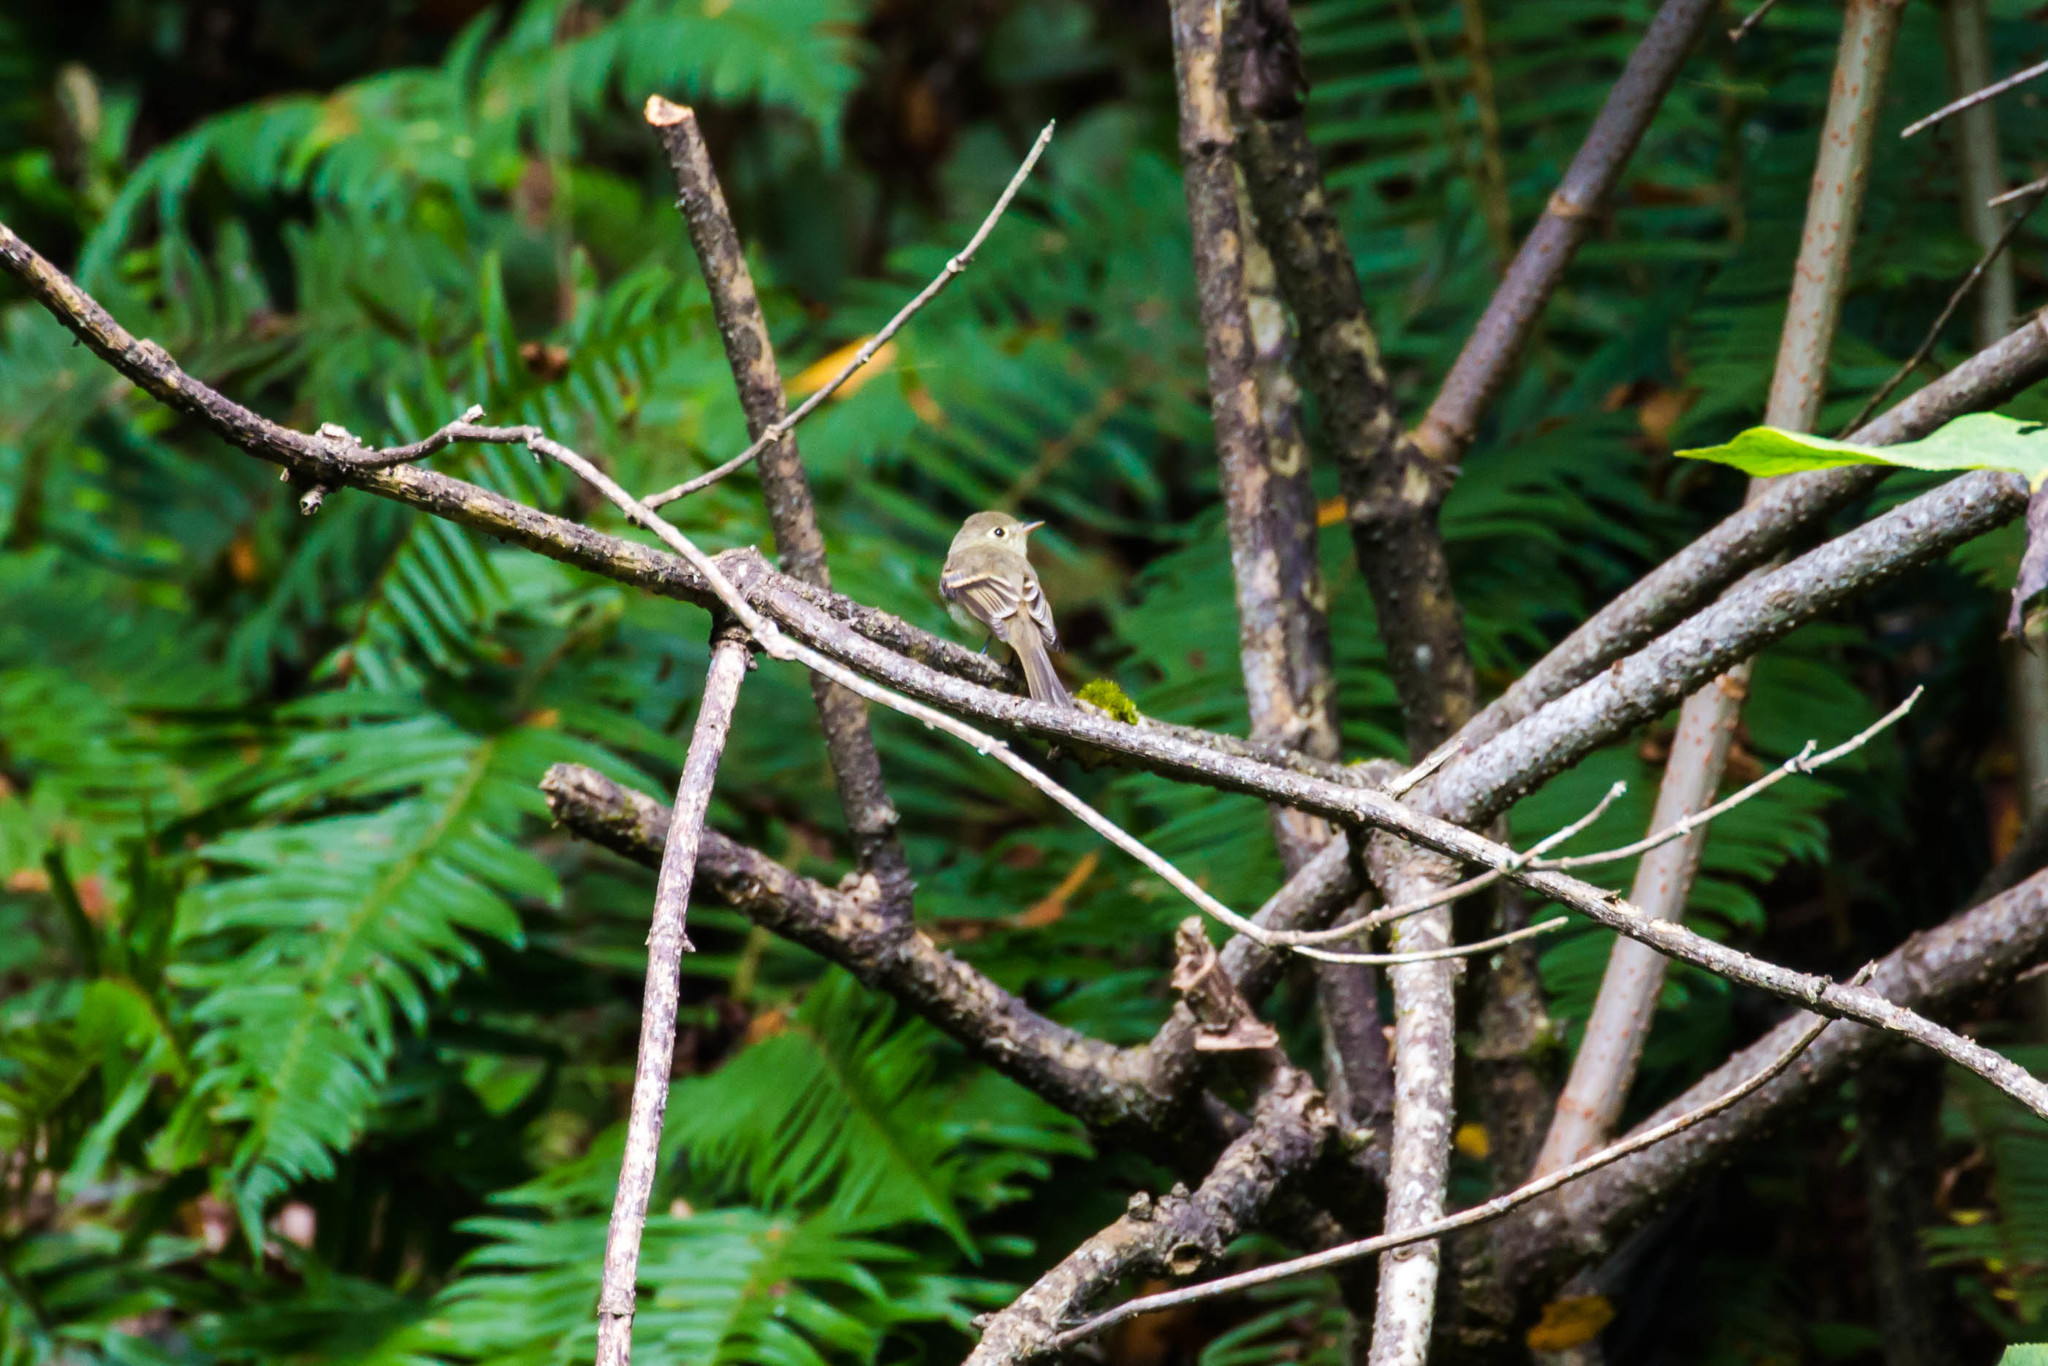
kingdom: Animalia
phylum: Chordata
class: Aves
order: Passeriformes
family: Tyrannidae
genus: Empidonax
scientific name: Empidonax difficilis
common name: Pacific-slope flycatcher
